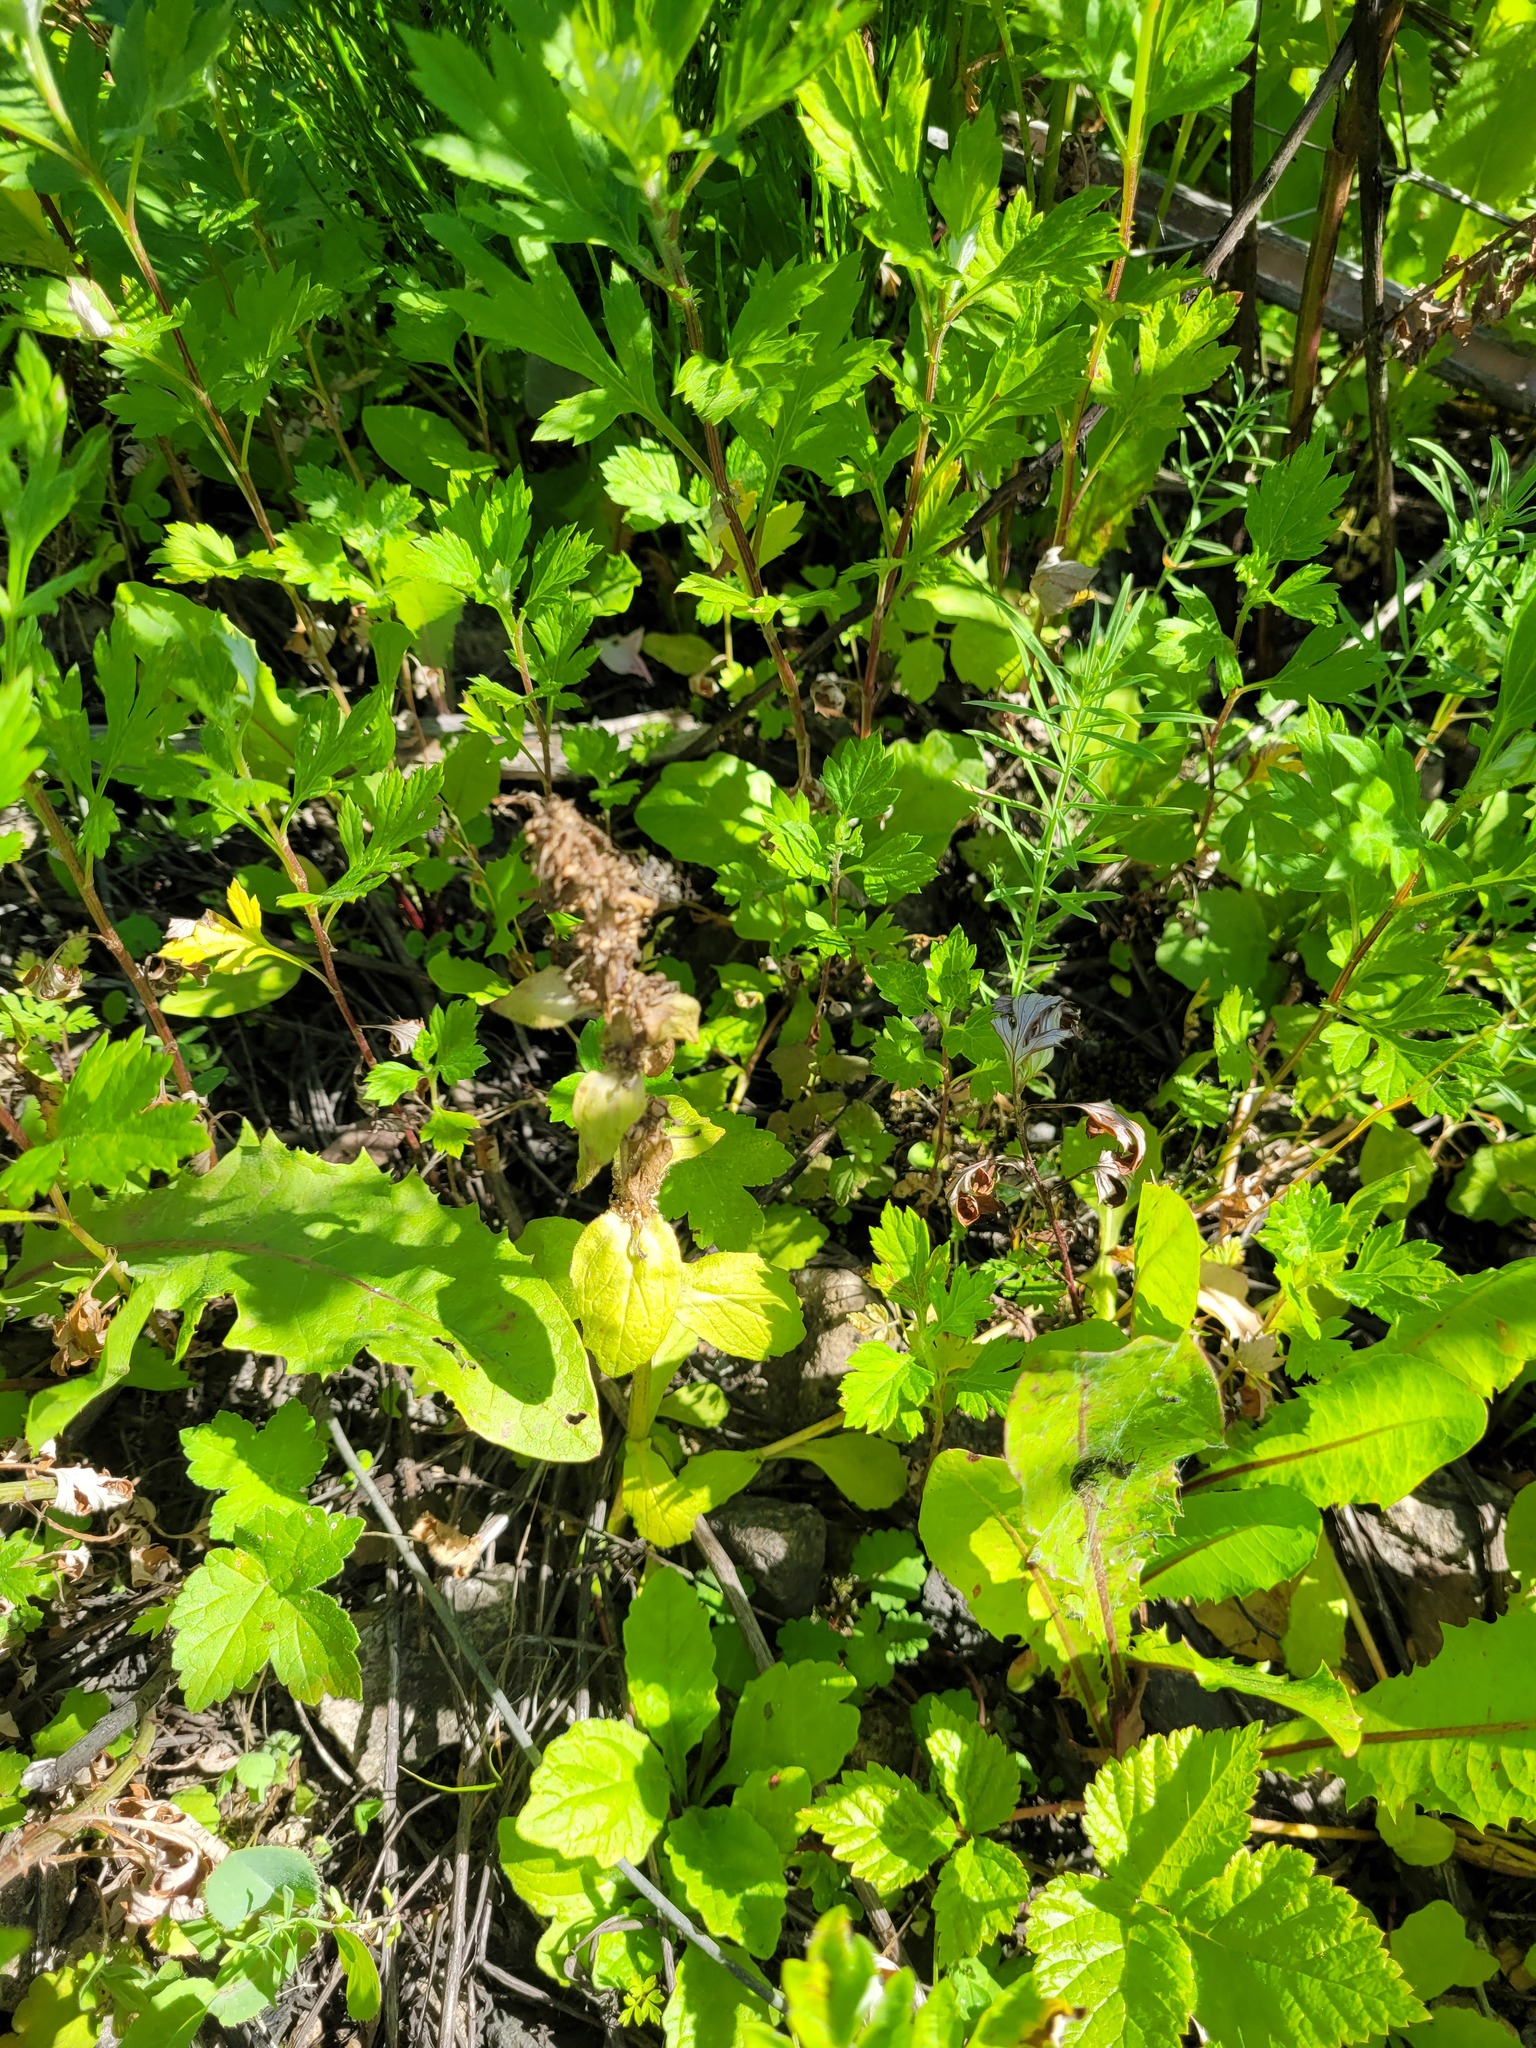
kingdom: Plantae
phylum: Tracheophyta
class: Magnoliopsida
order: Lamiales
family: Lamiaceae
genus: Ajuga
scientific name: Ajuga reptans
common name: Bugle
